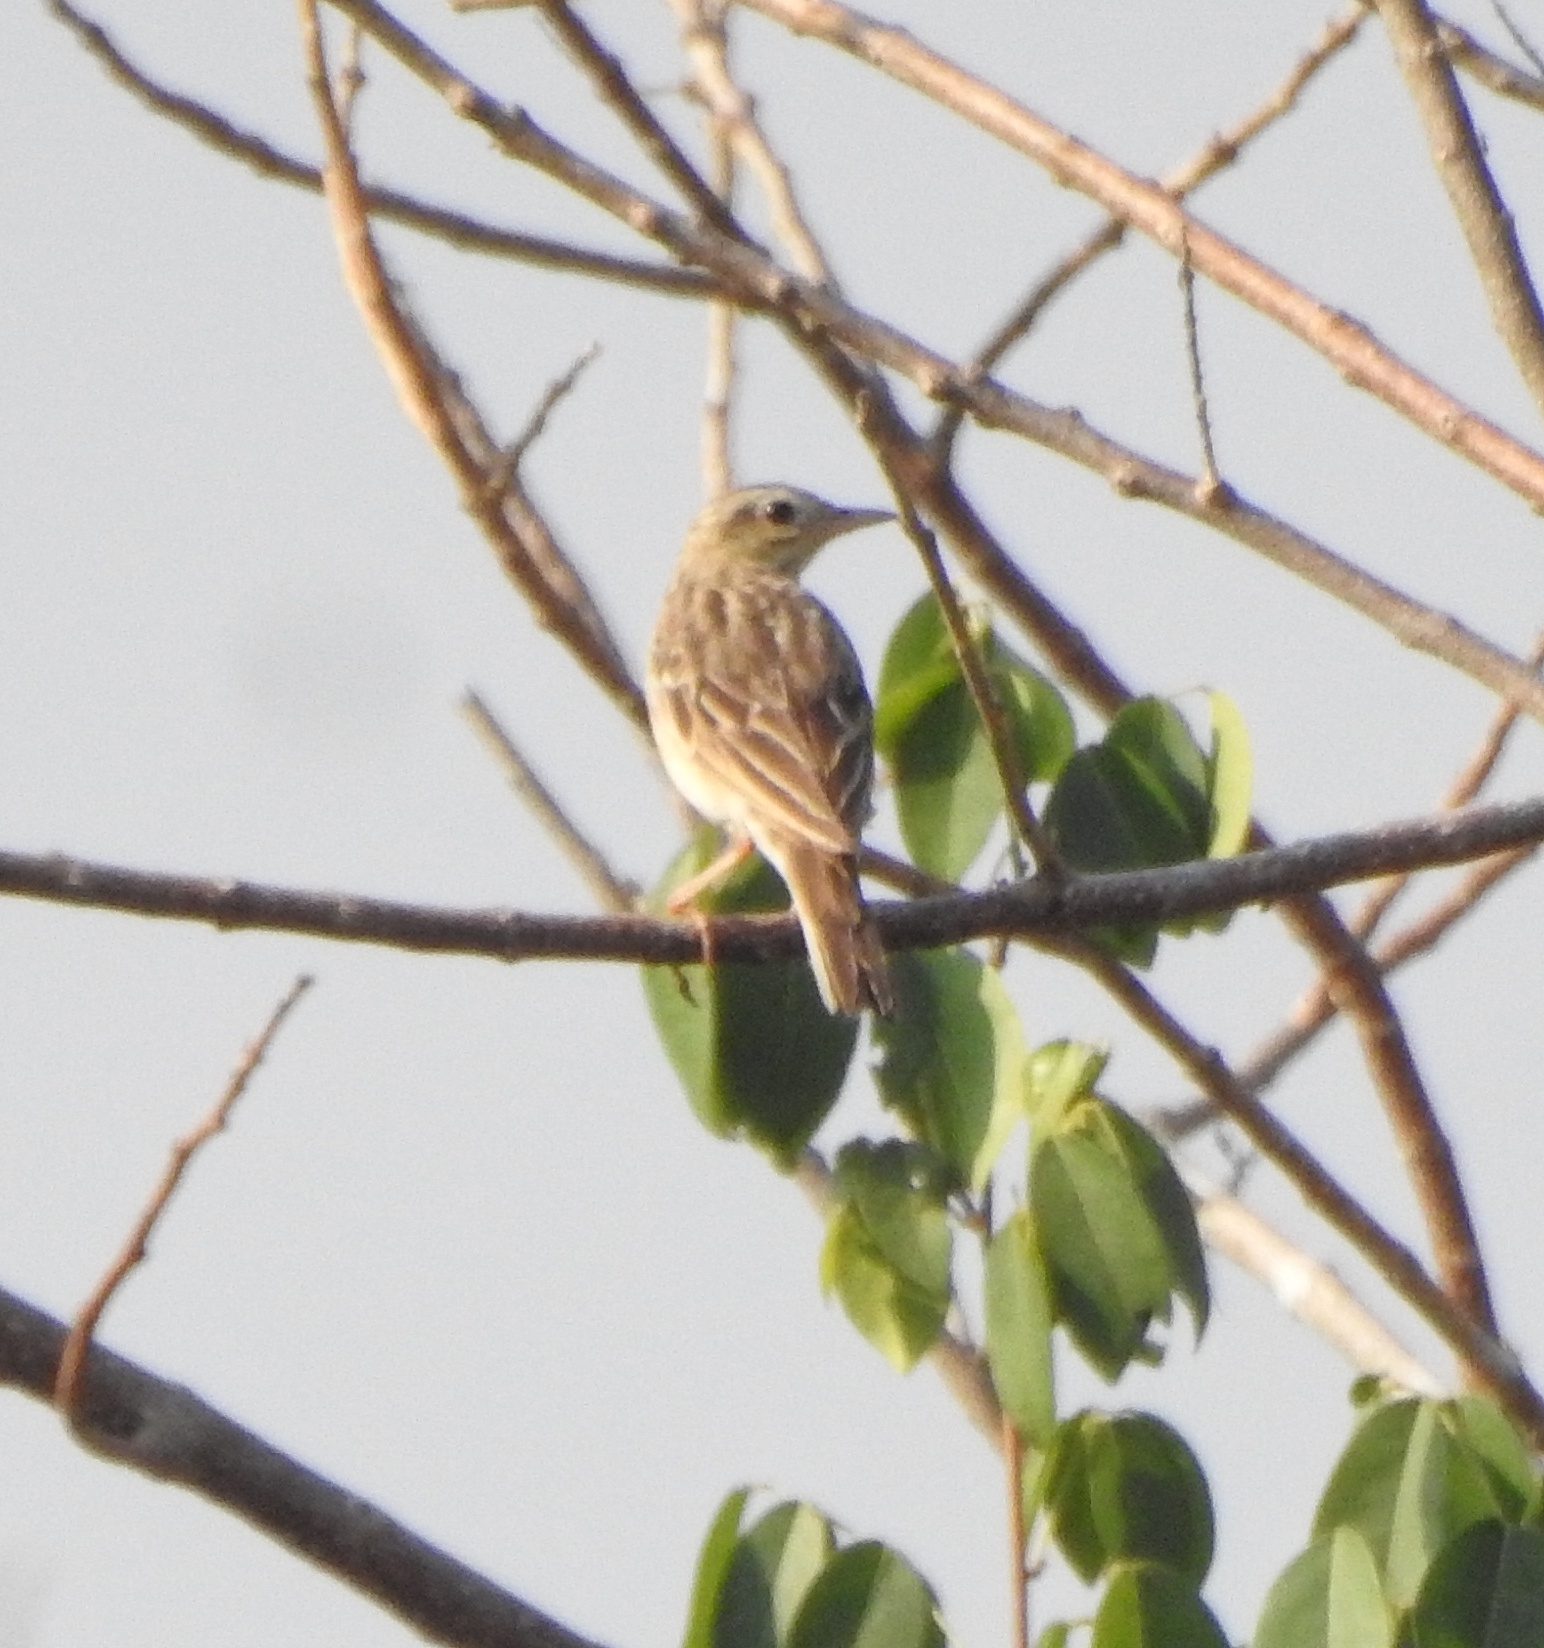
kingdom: Animalia
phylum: Chordata
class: Aves
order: Passeriformes
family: Motacillidae
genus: Anthus
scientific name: Anthus godlewskii
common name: Blyth's pipit
